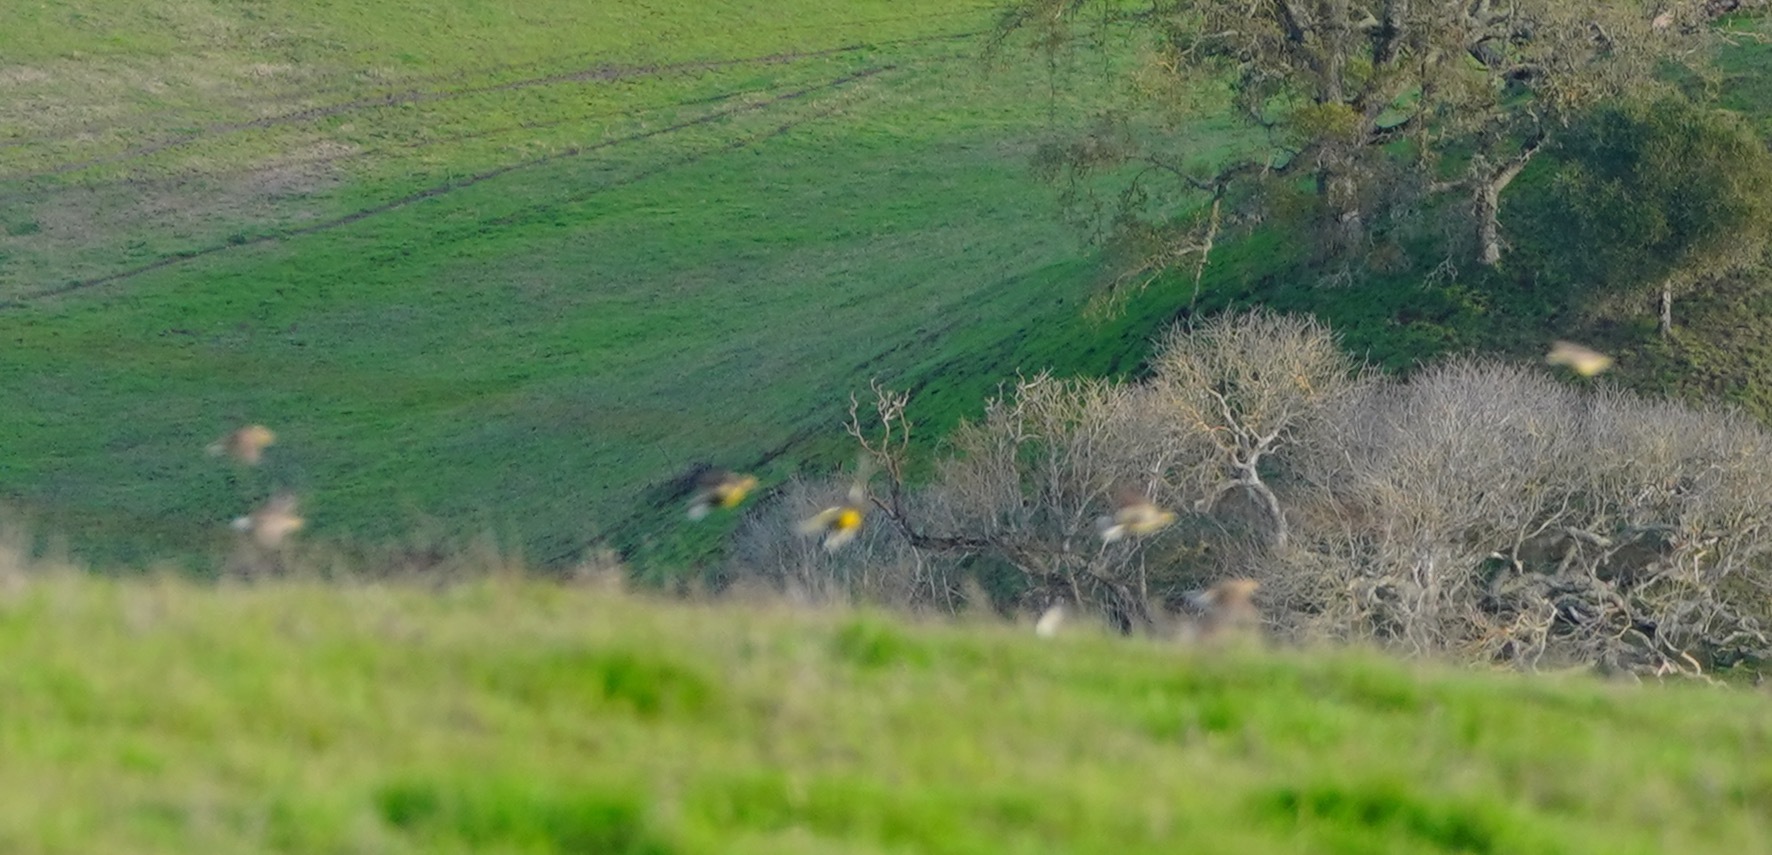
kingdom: Animalia
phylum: Chordata
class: Aves
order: Passeriformes
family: Icteridae
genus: Sturnella
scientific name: Sturnella neglecta
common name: Western meadowlark
